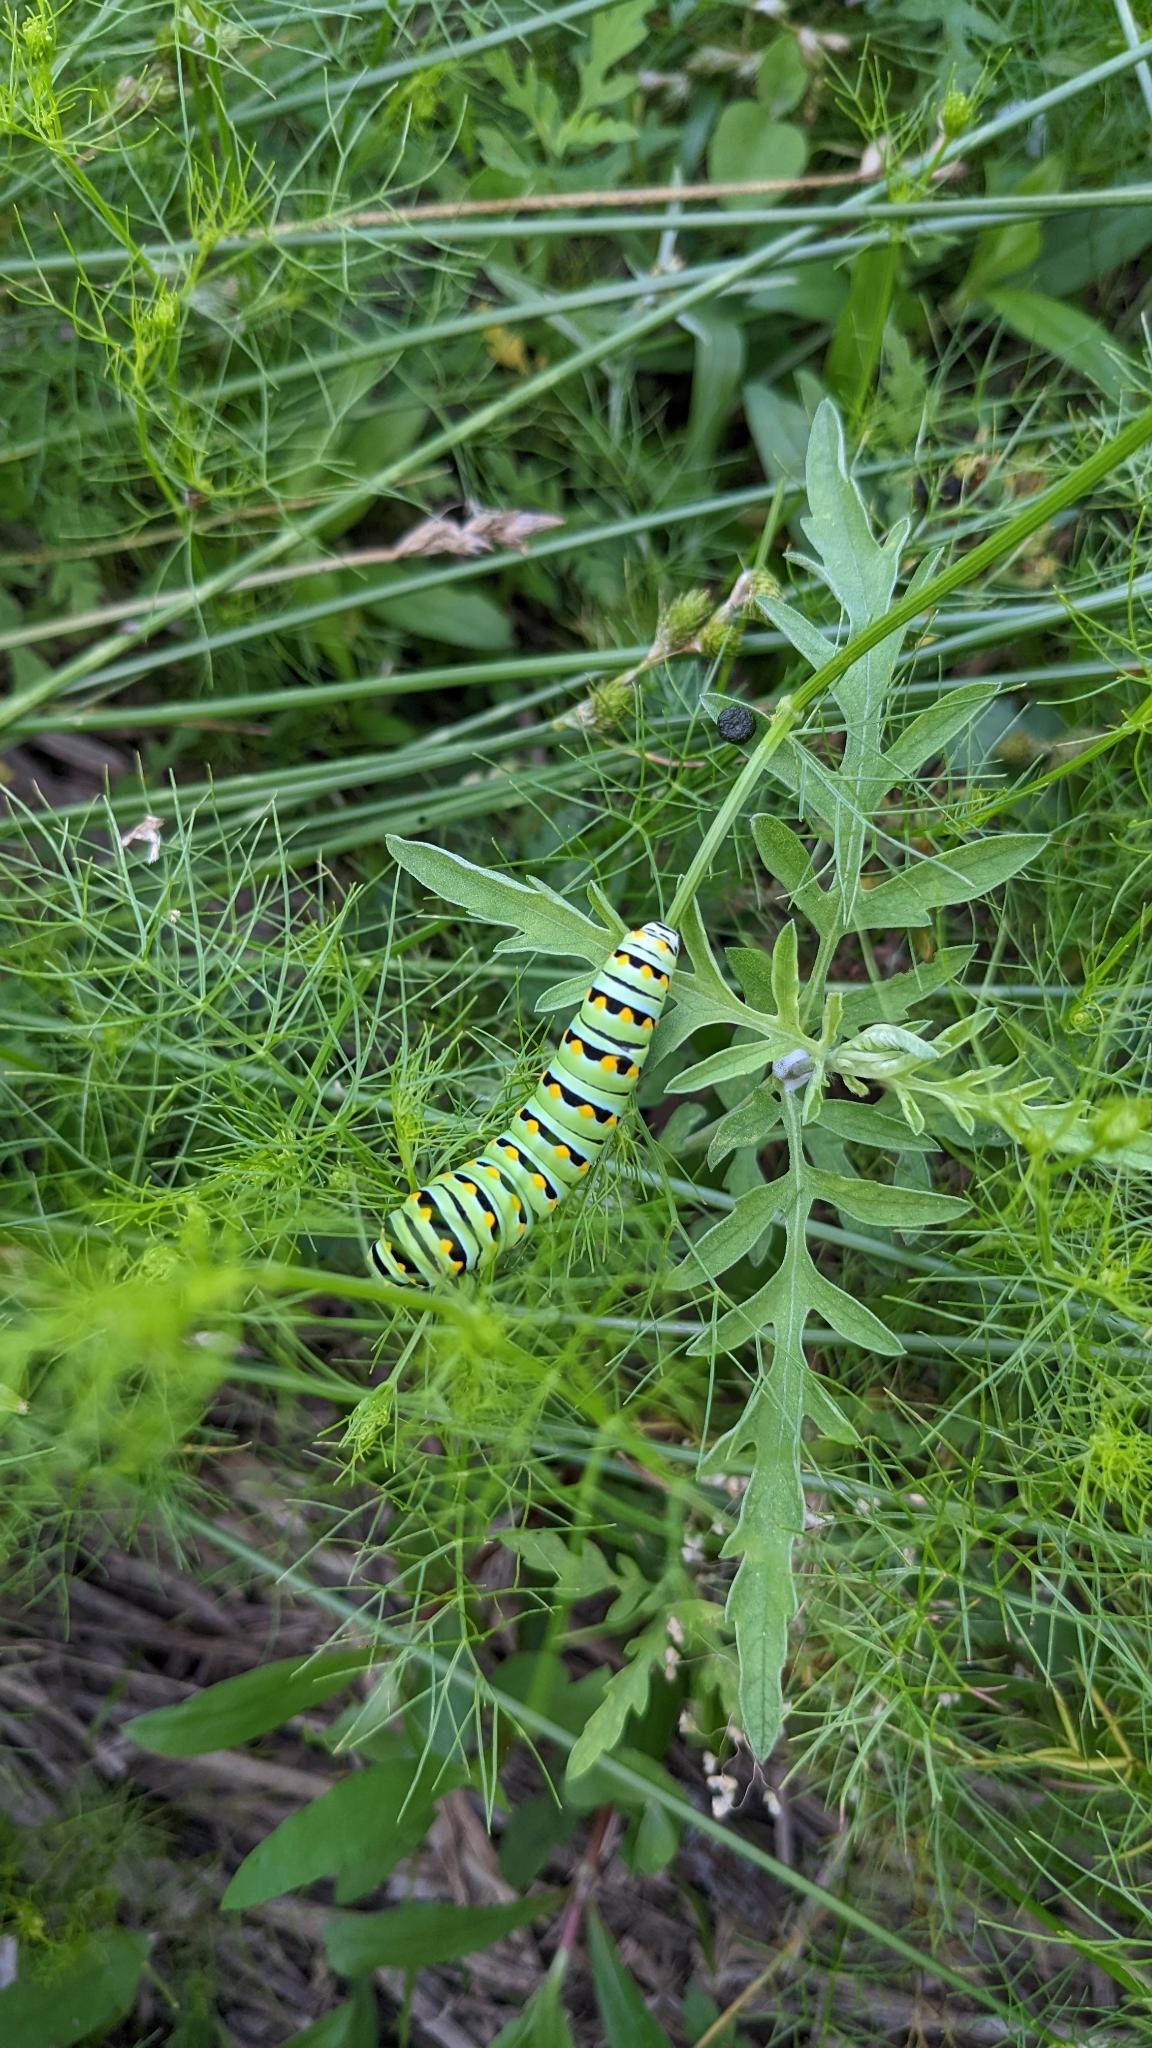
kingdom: Animalia
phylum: Arthropoda
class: Insecta
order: Lepidoptera
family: Papilionidae
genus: Papilio
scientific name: Papilio polyxenes
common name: Black swallowtail
